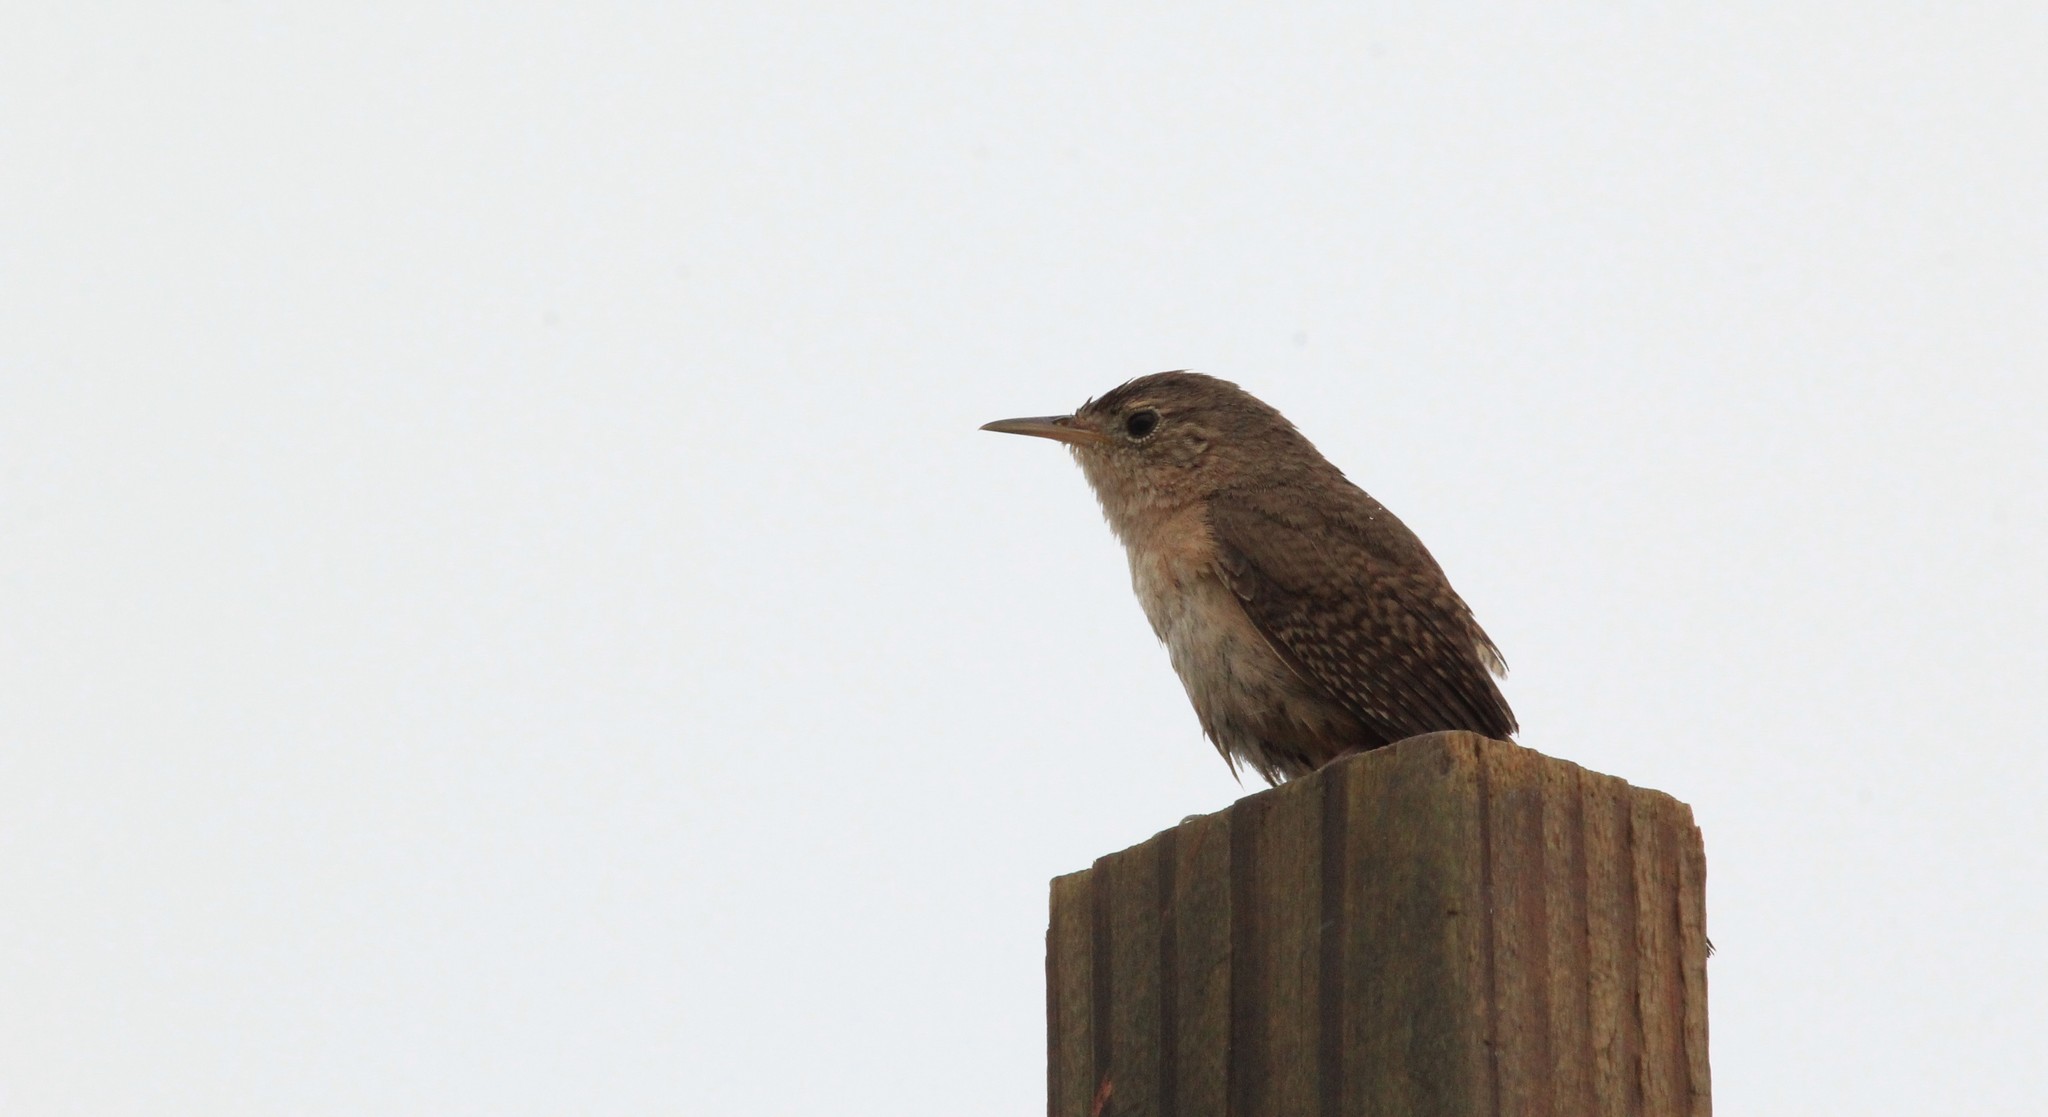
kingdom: Animalia
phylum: Chordata
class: Aves
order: Passeriformes
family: Troglodytidae
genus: Troglodytes
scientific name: Troglodytes aedon
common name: House wren
